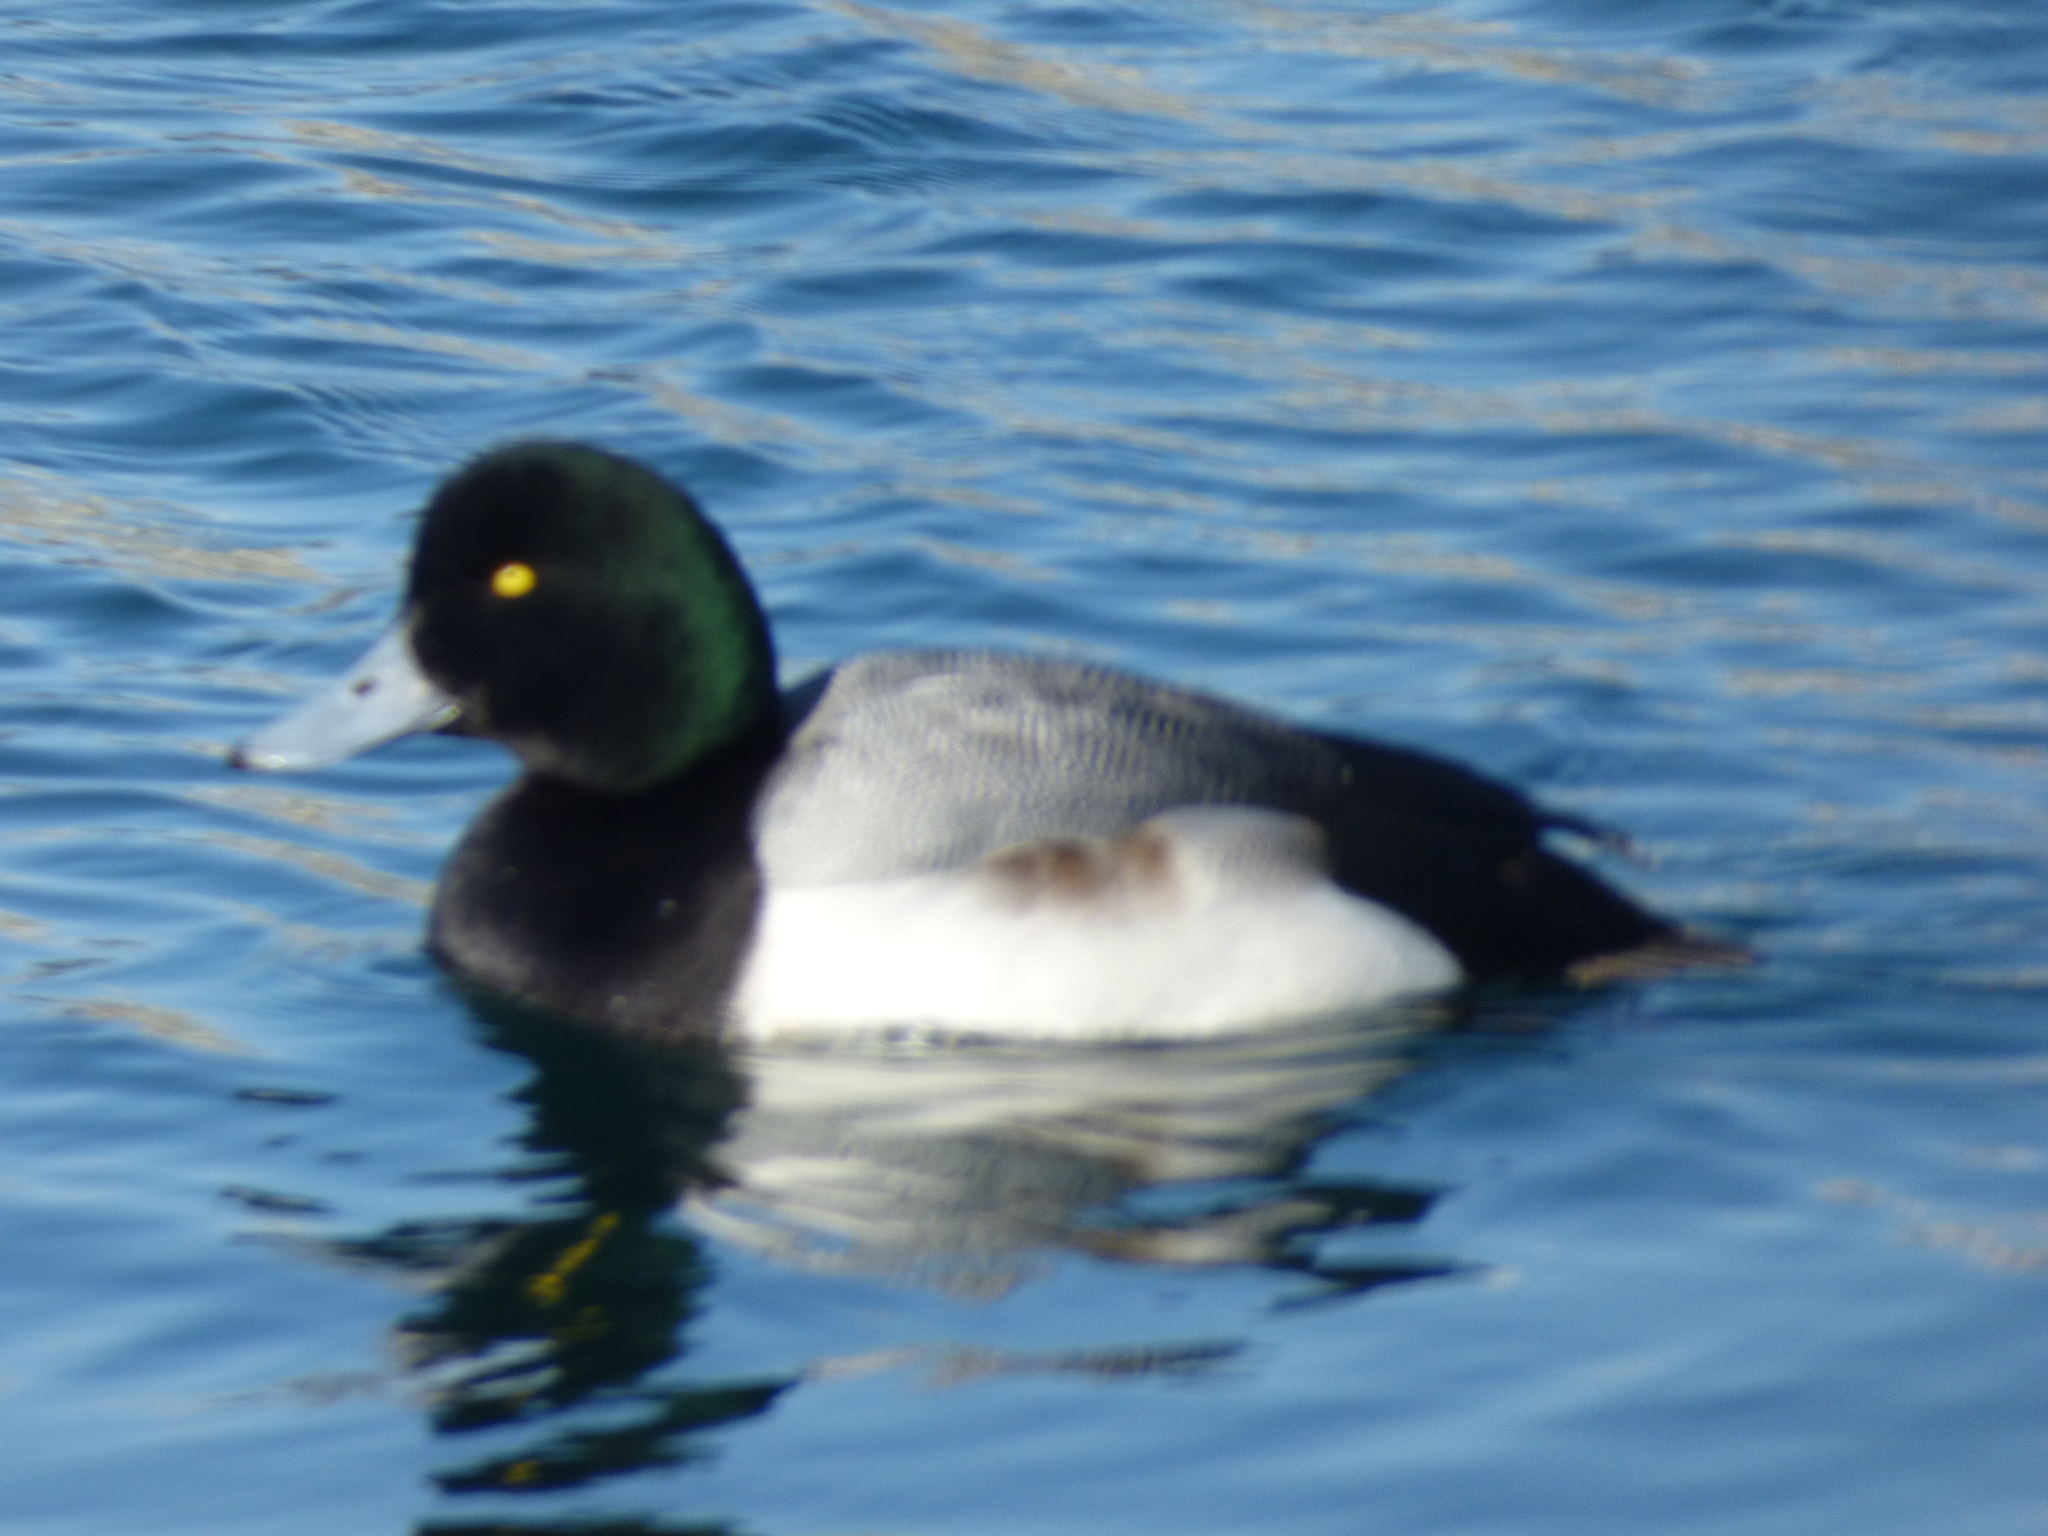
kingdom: Animalia
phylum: Chordata
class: Aves
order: Anseriformes
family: Anatidae
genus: Aythya
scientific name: Aythya marila
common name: Greater scaup
